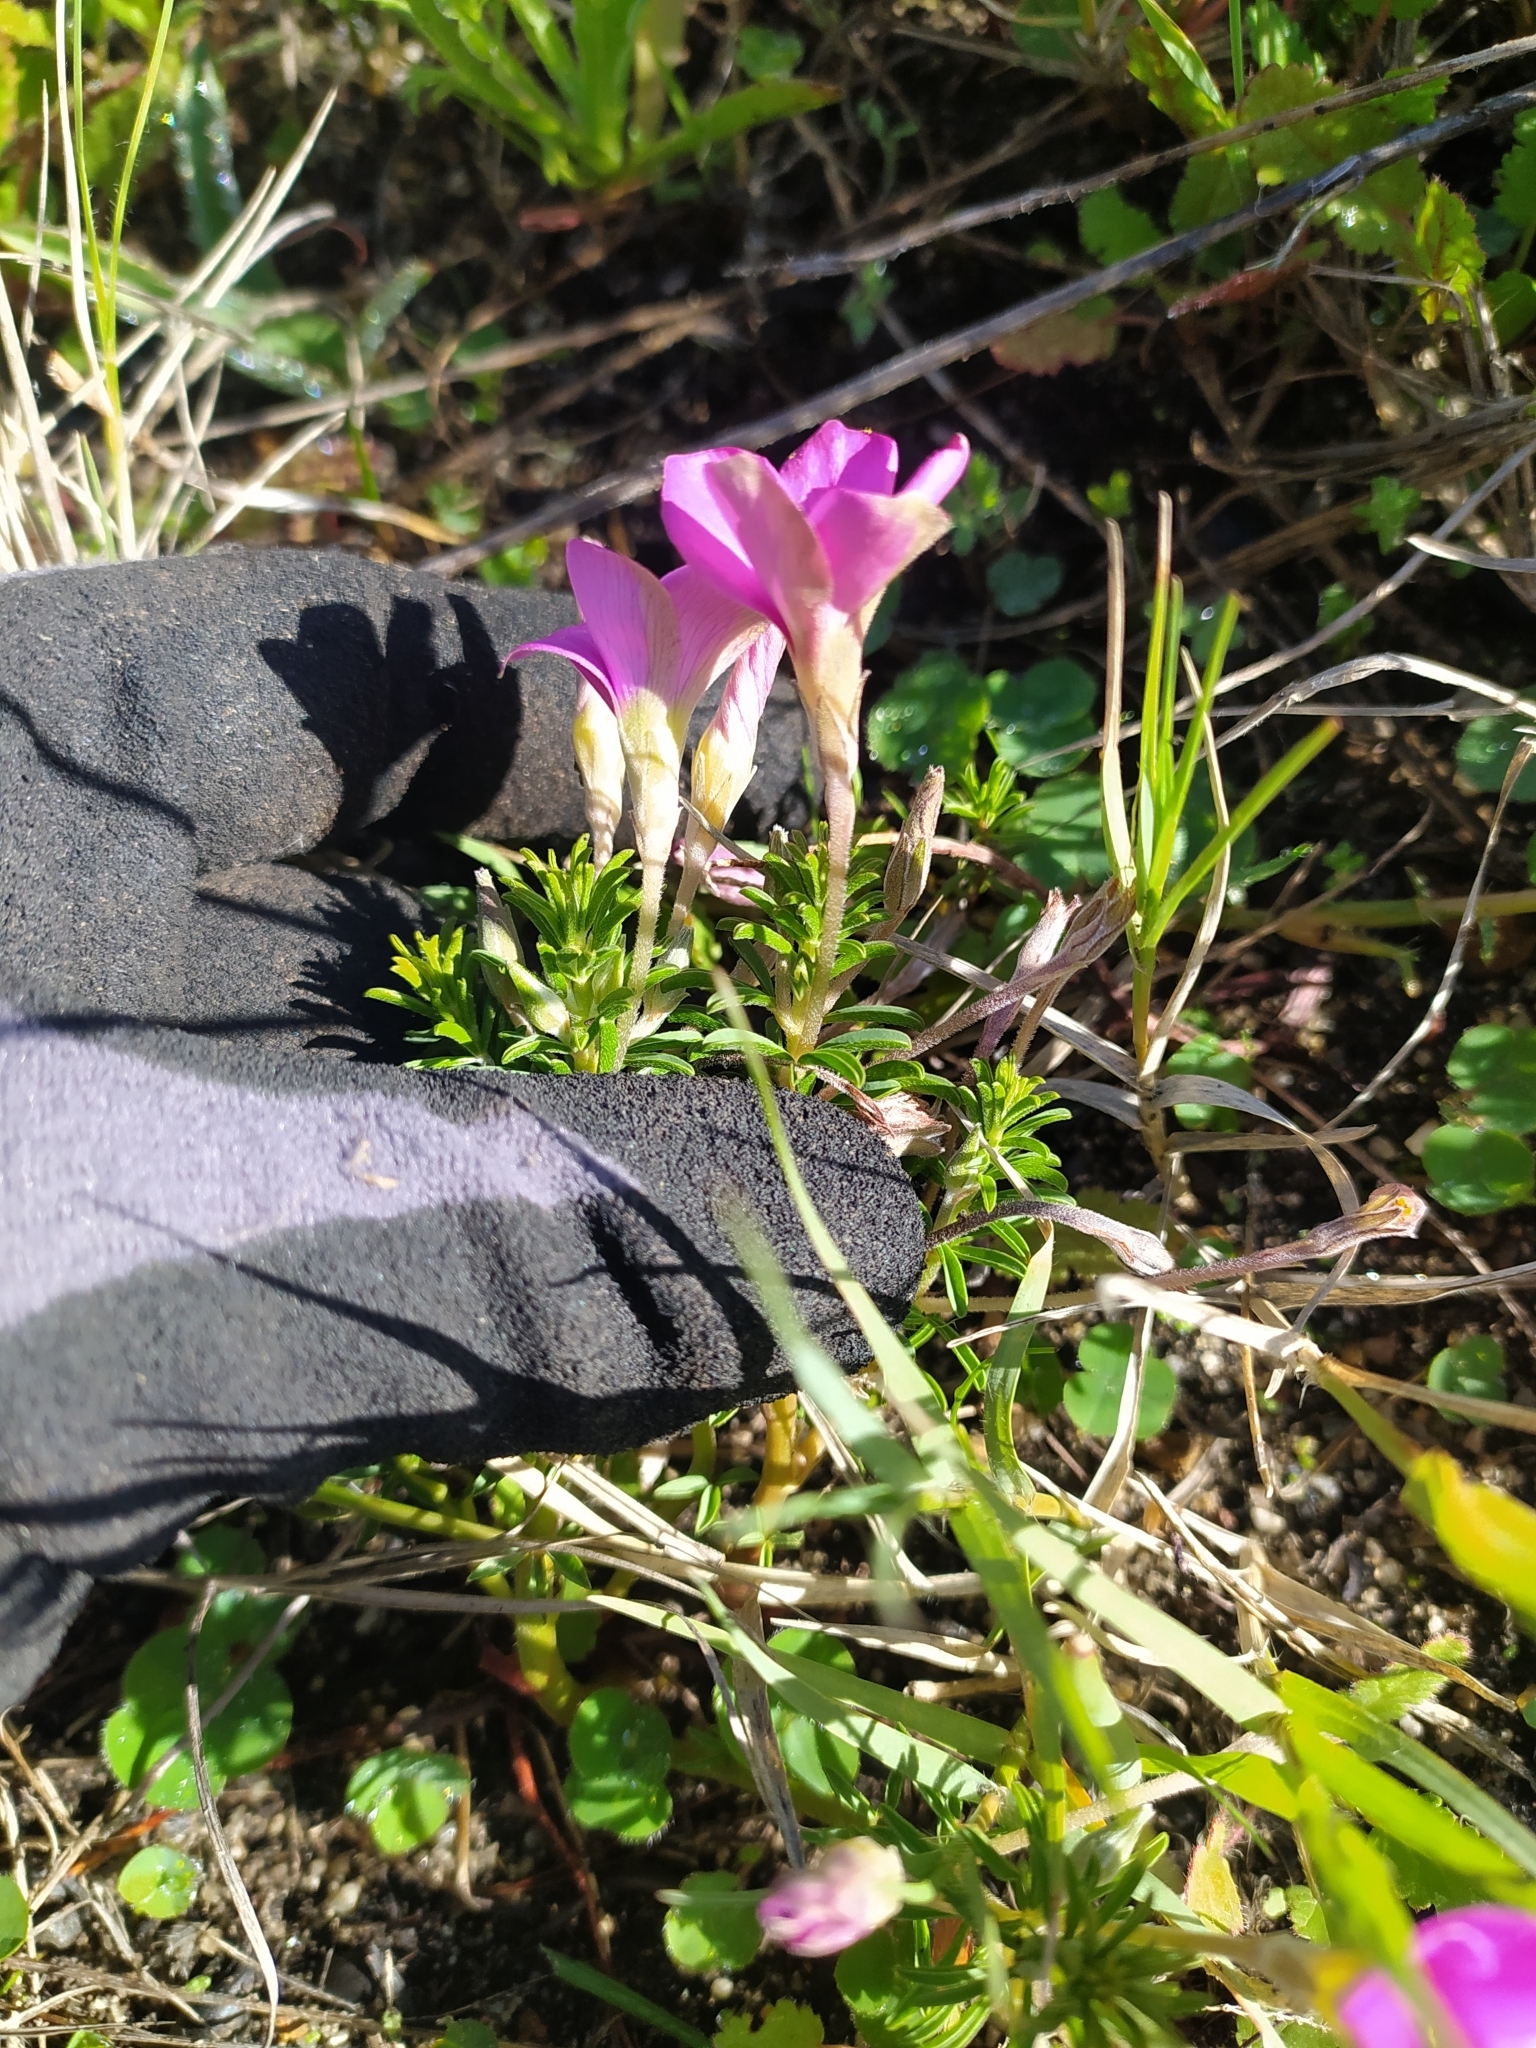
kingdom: Plantae
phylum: Tracheophyta
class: Magnoliopsida
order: Oxalidales
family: Oxalidaceae
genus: Oxalis
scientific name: Oxalis hirta
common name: Tropical woodsorrel
